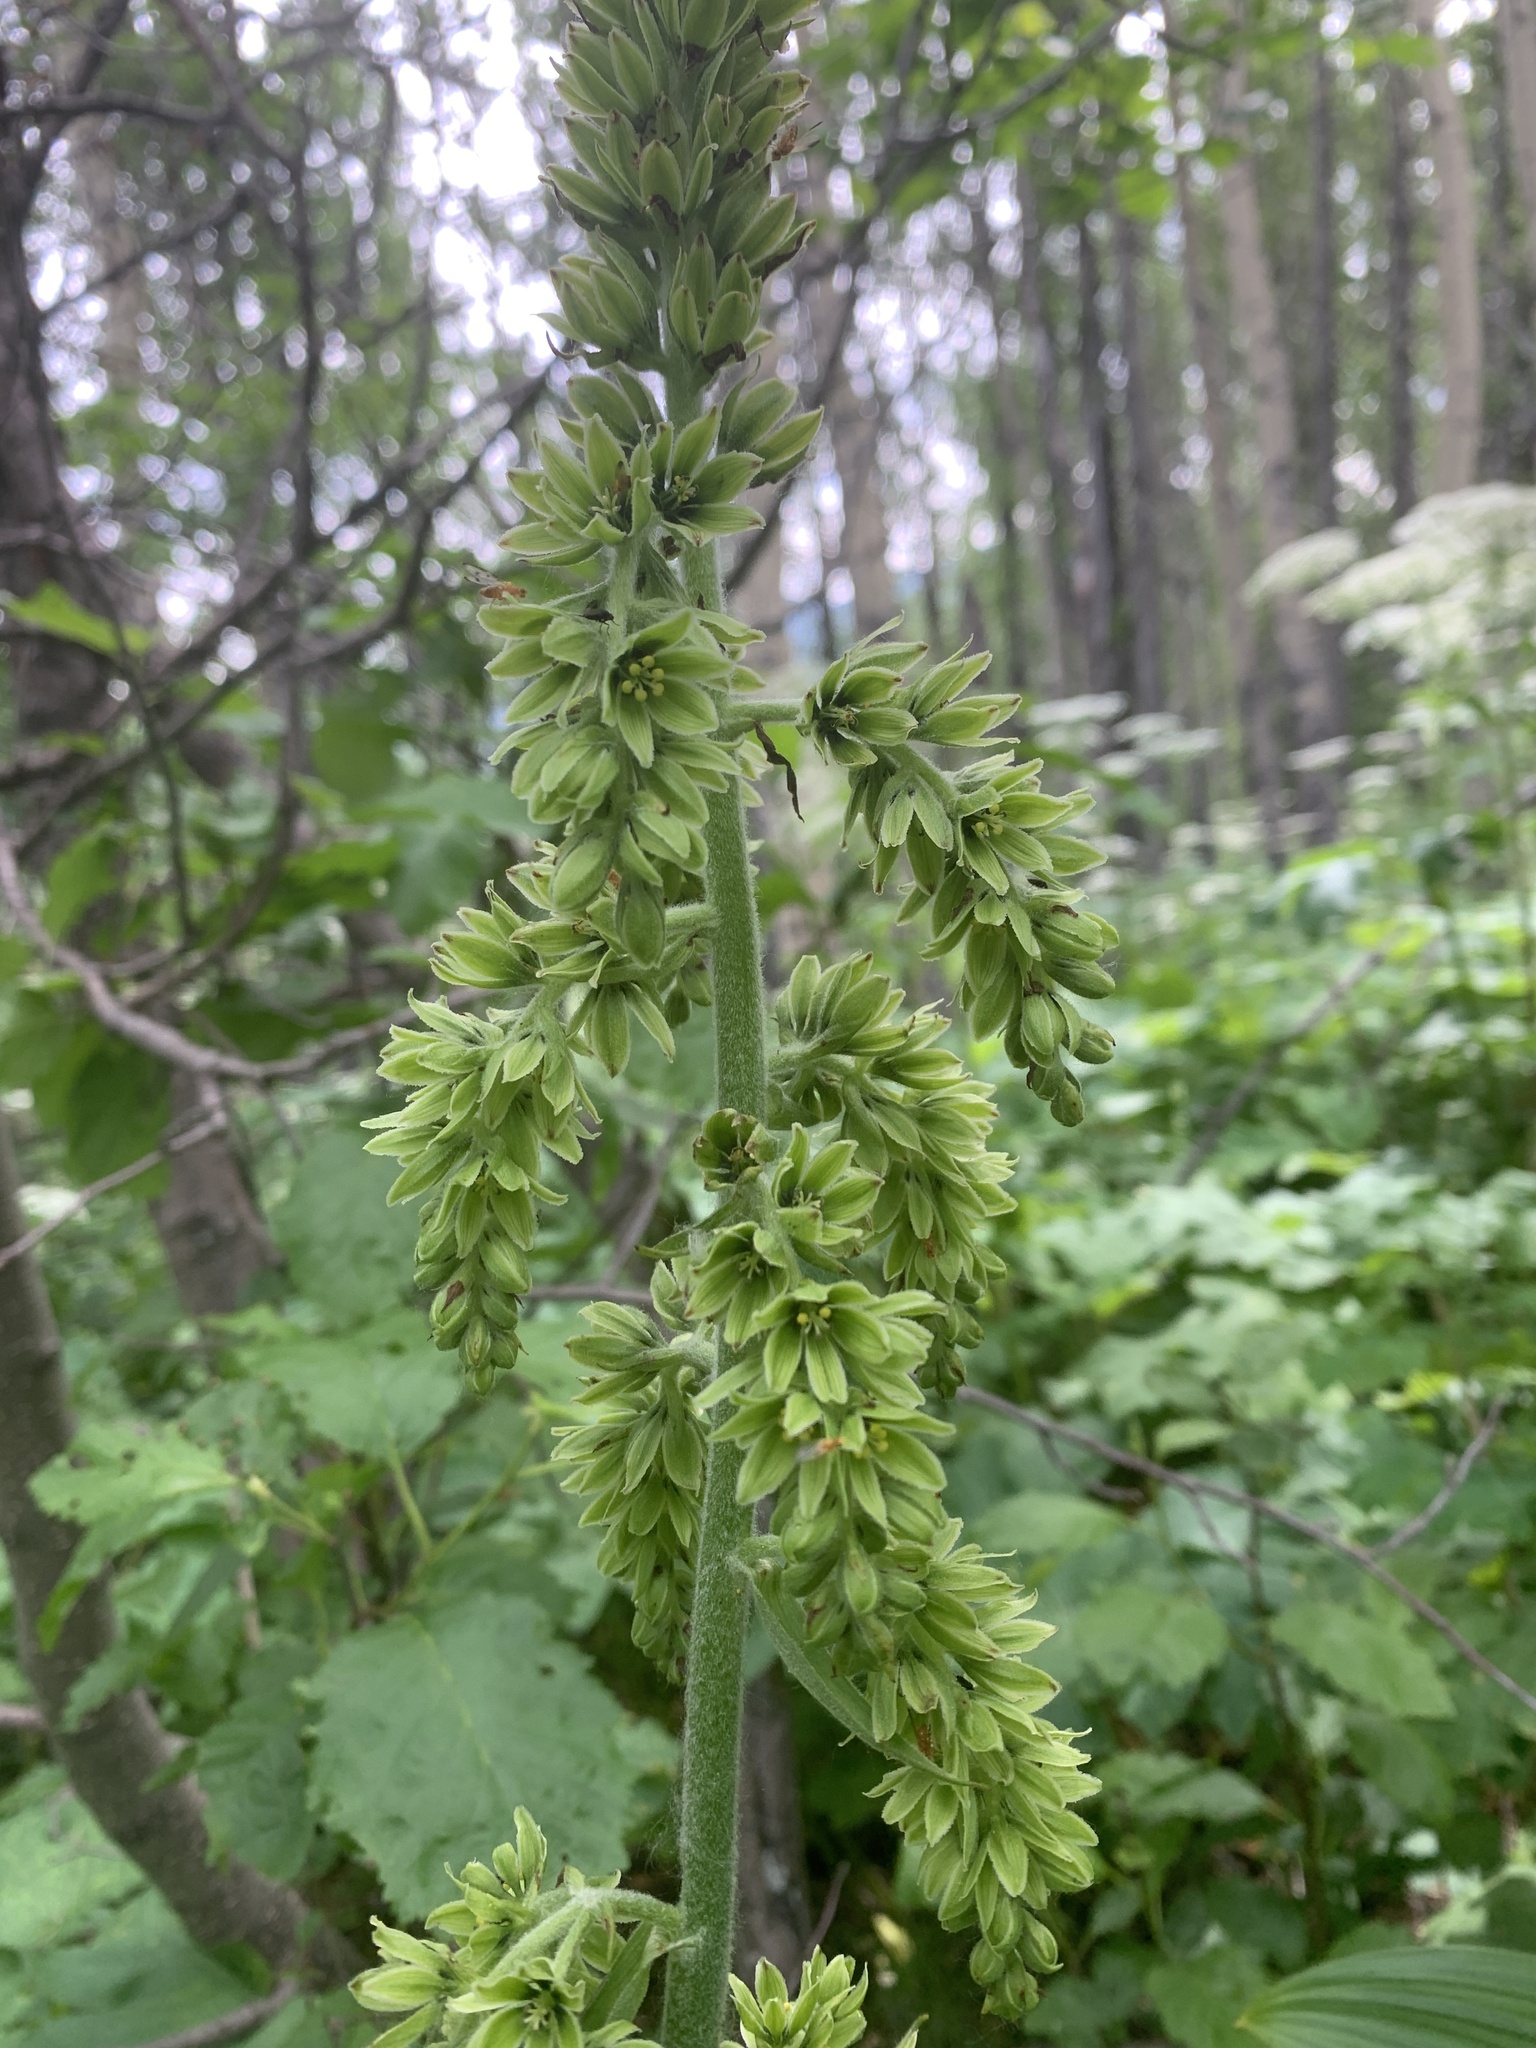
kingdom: Plantae
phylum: Tracheophyta
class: Liliopsida
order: Liliales
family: Melanthiaceae
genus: Veratrum
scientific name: Veratrum viride
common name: American false hellebore
